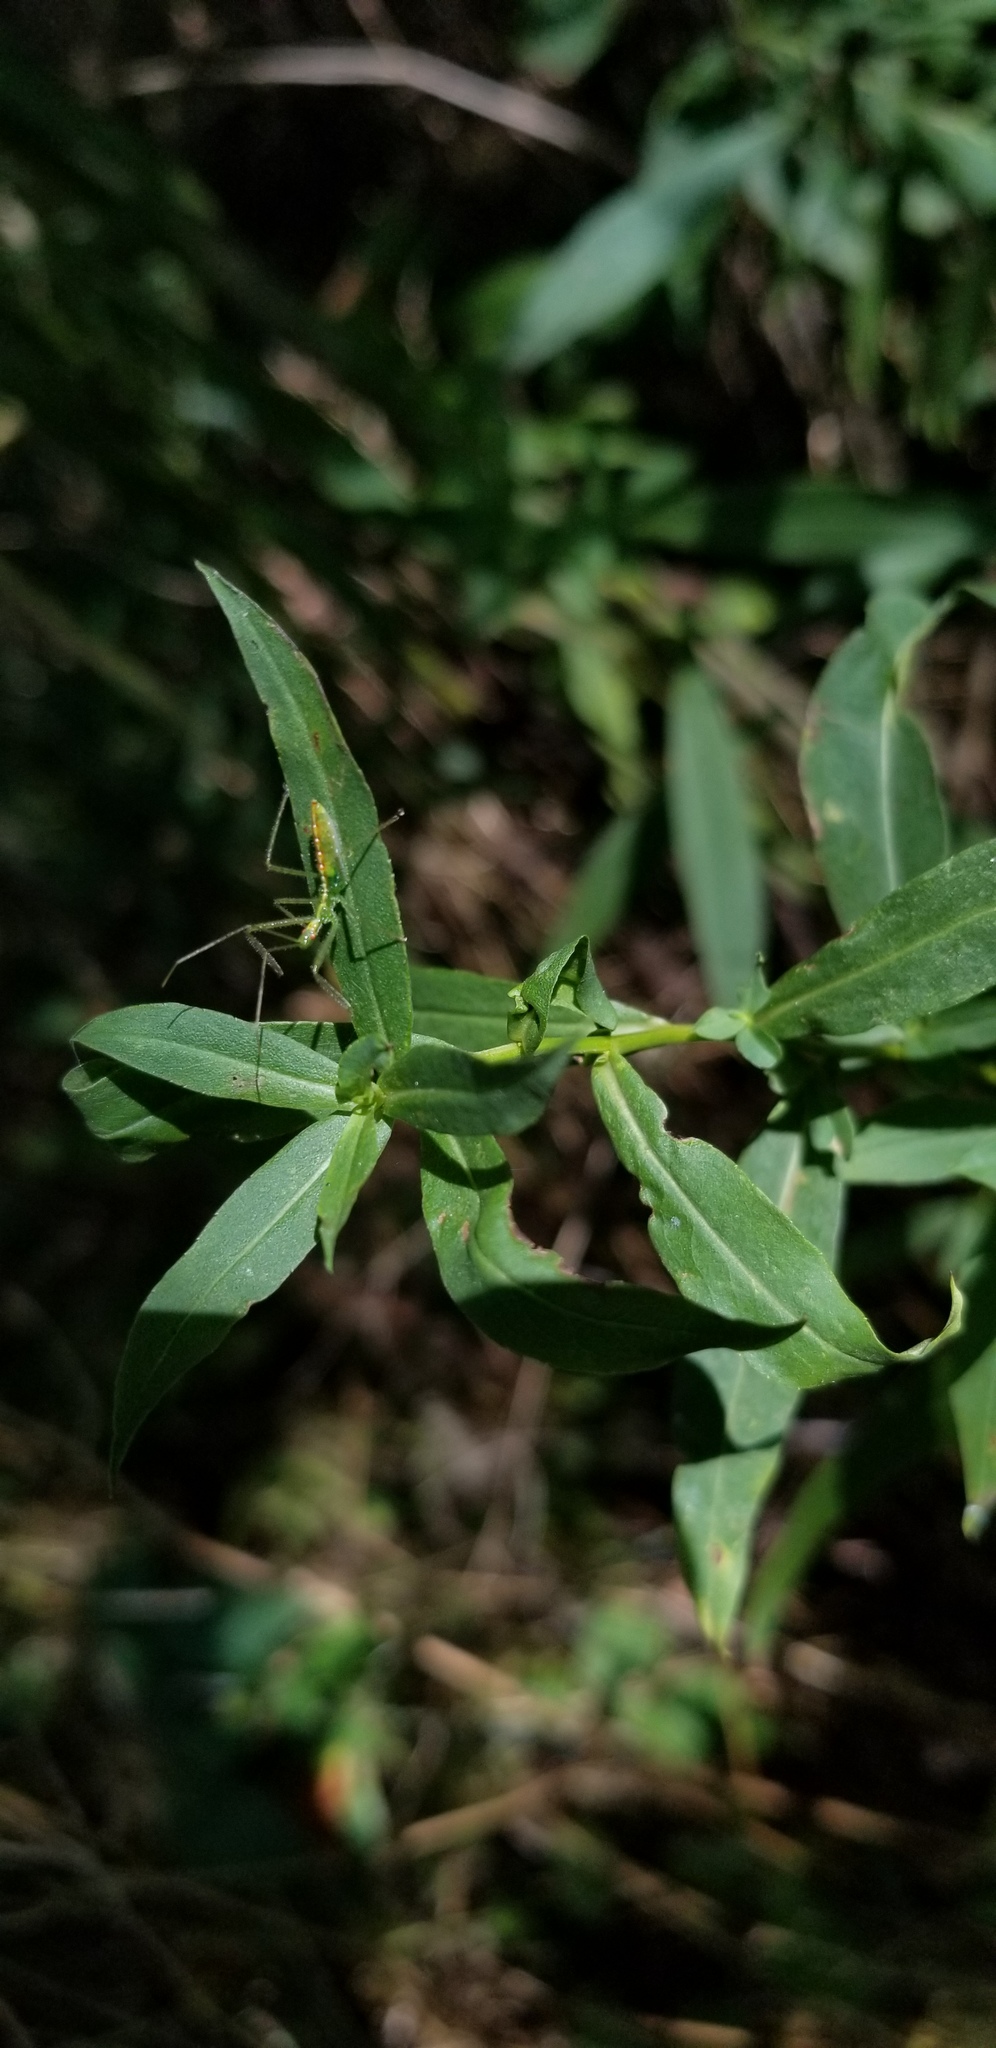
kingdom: Animalia
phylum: Arthropoda
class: Insecta
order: Hemiptera
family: Reduviidae
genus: Zelus
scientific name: Zelus luridus
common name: Pale green assassin bug
